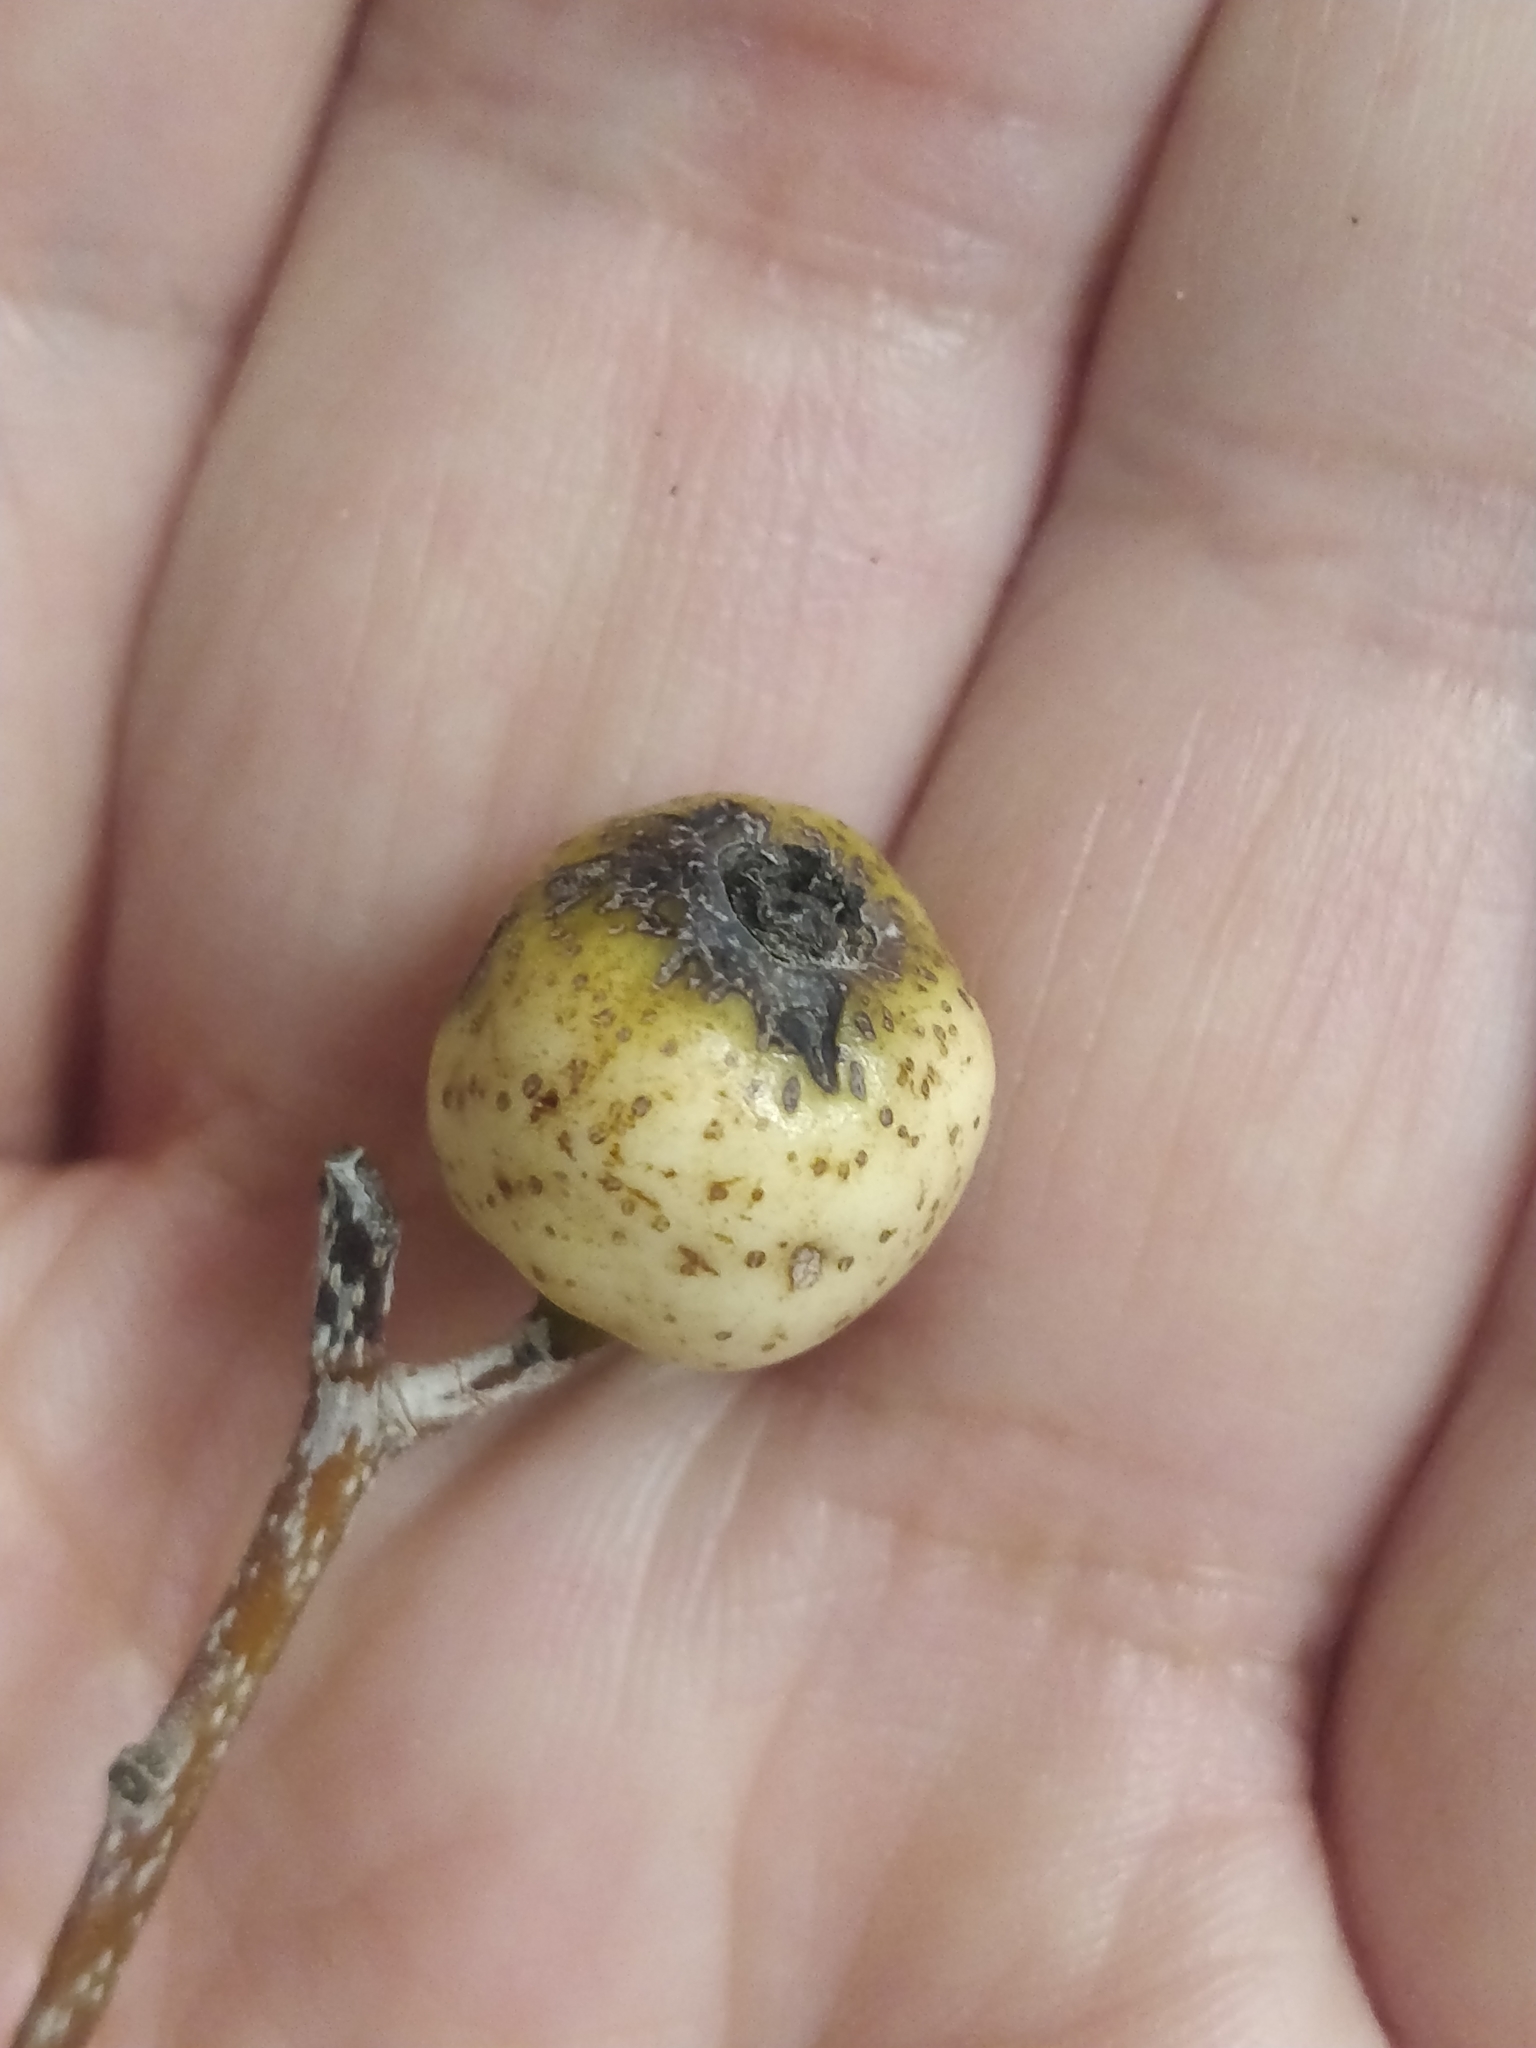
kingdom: Plantae
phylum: Tracheophyta
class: Magnoliopsida
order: Rosales
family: Rosaceae
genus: Chamaemeles
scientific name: Chamaemeles coriacea
